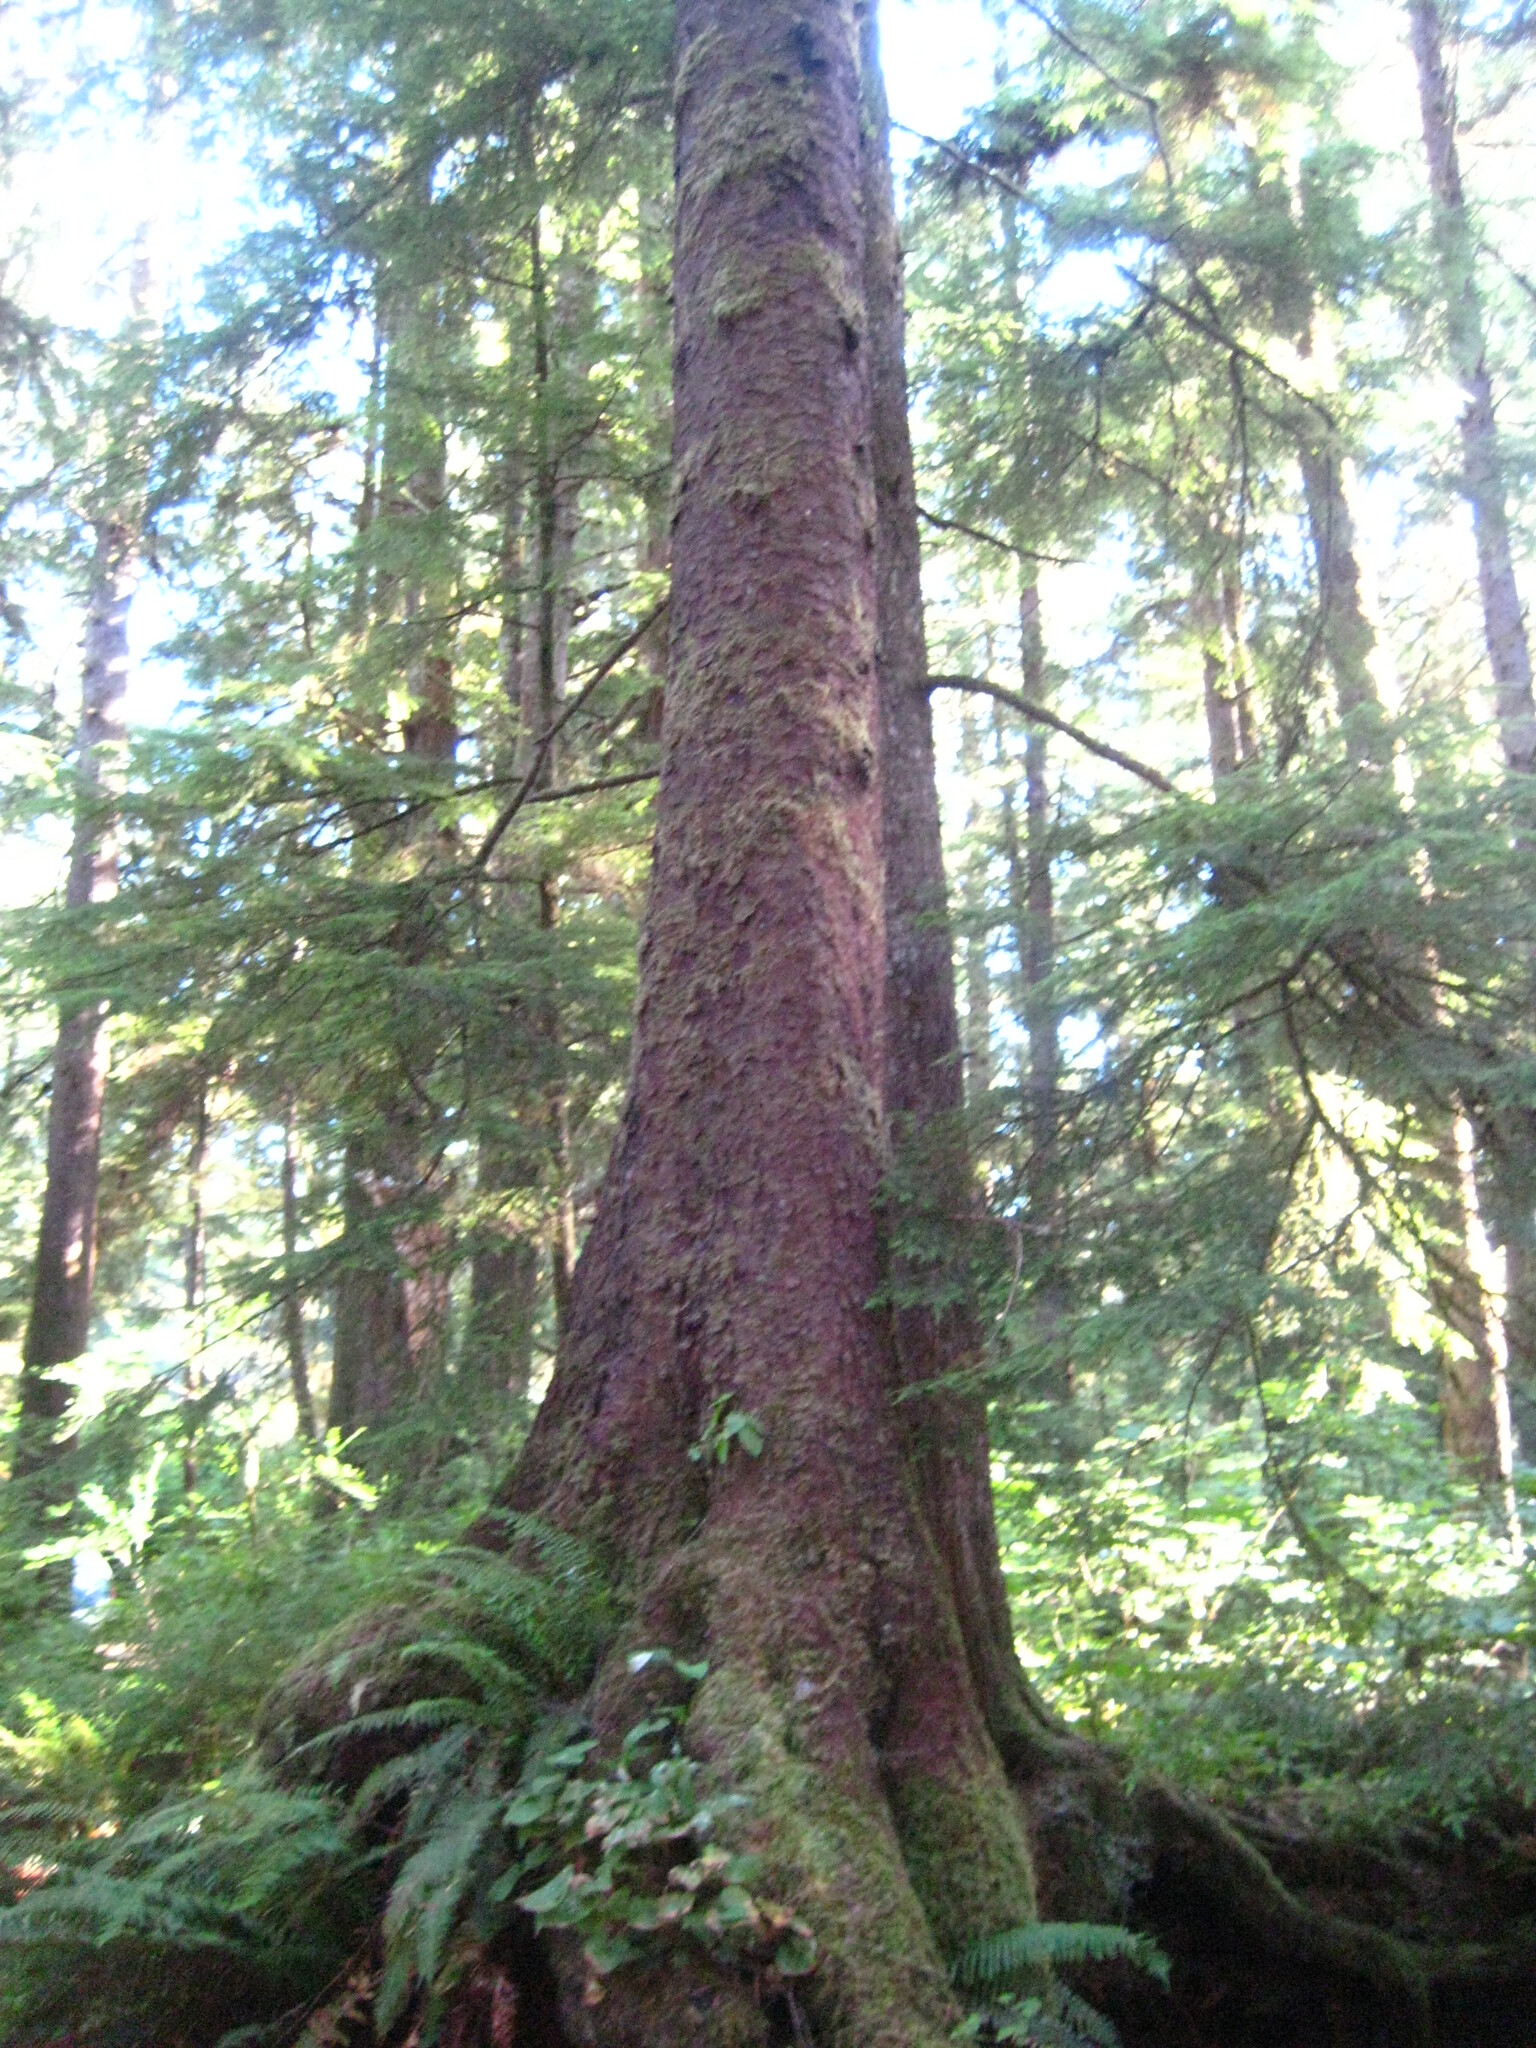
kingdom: Plantae
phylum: Tracheophyta
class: Pinopsida
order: Pinales
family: Pinaceae
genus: Picea
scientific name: Picea sitchensis
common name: Sitka spruce
